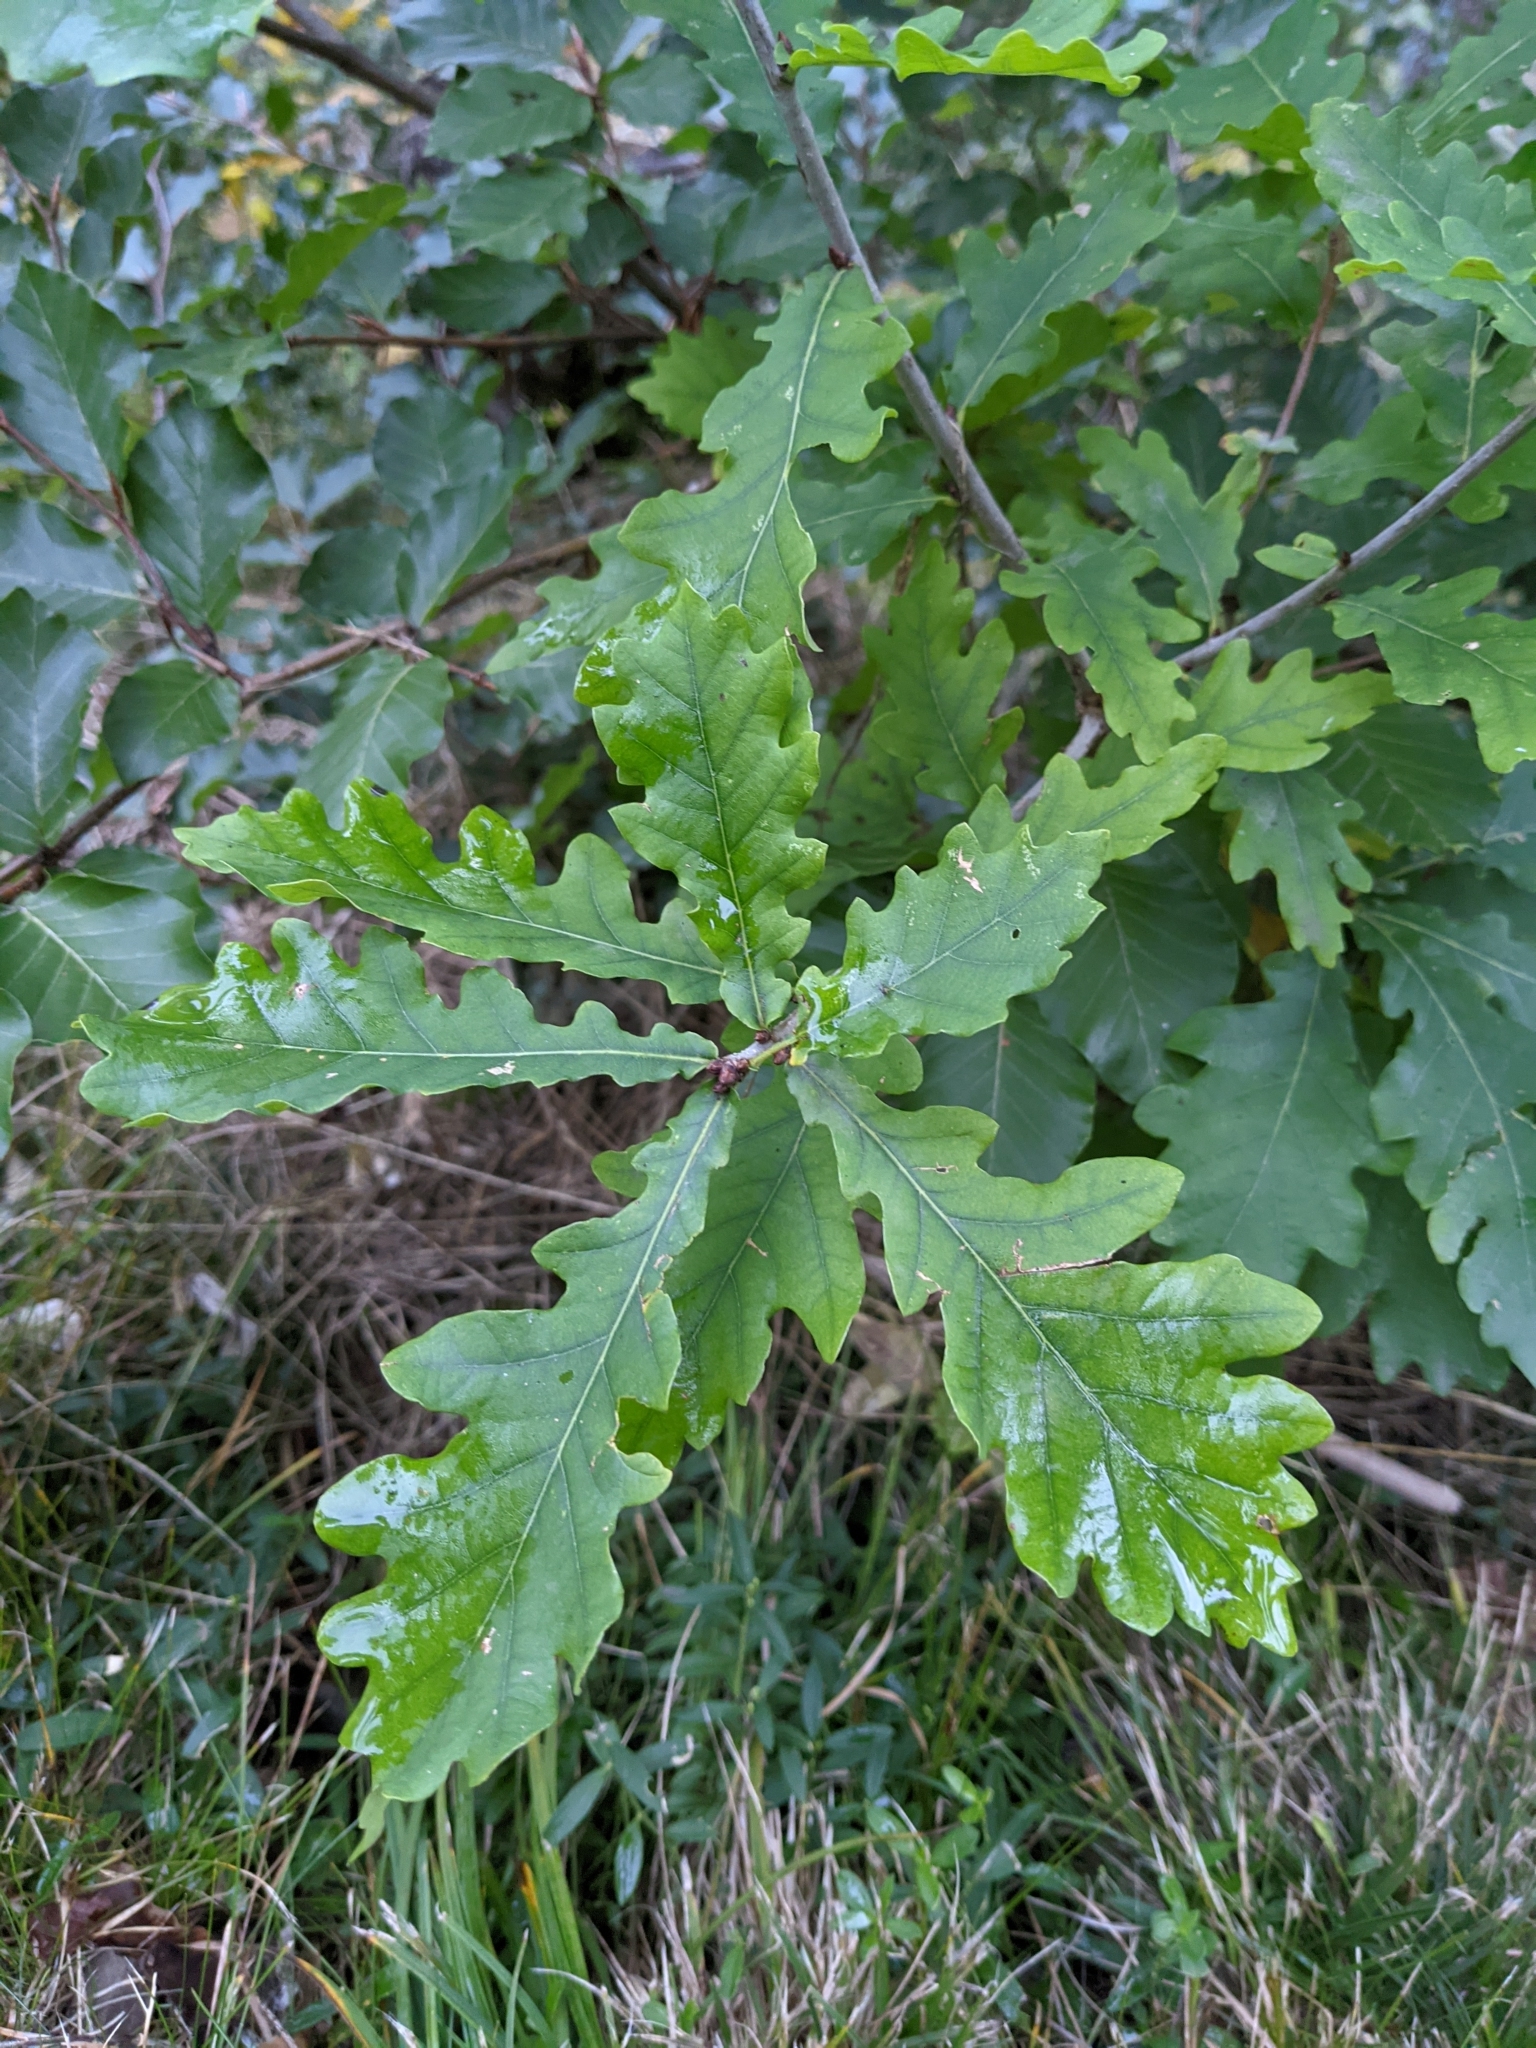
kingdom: Plantae
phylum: Tracheophyta
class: Magnoliopsida
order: Fagales
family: Fagaceae
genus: Quercus
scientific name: Quercus robur
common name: Pedunculate oak
